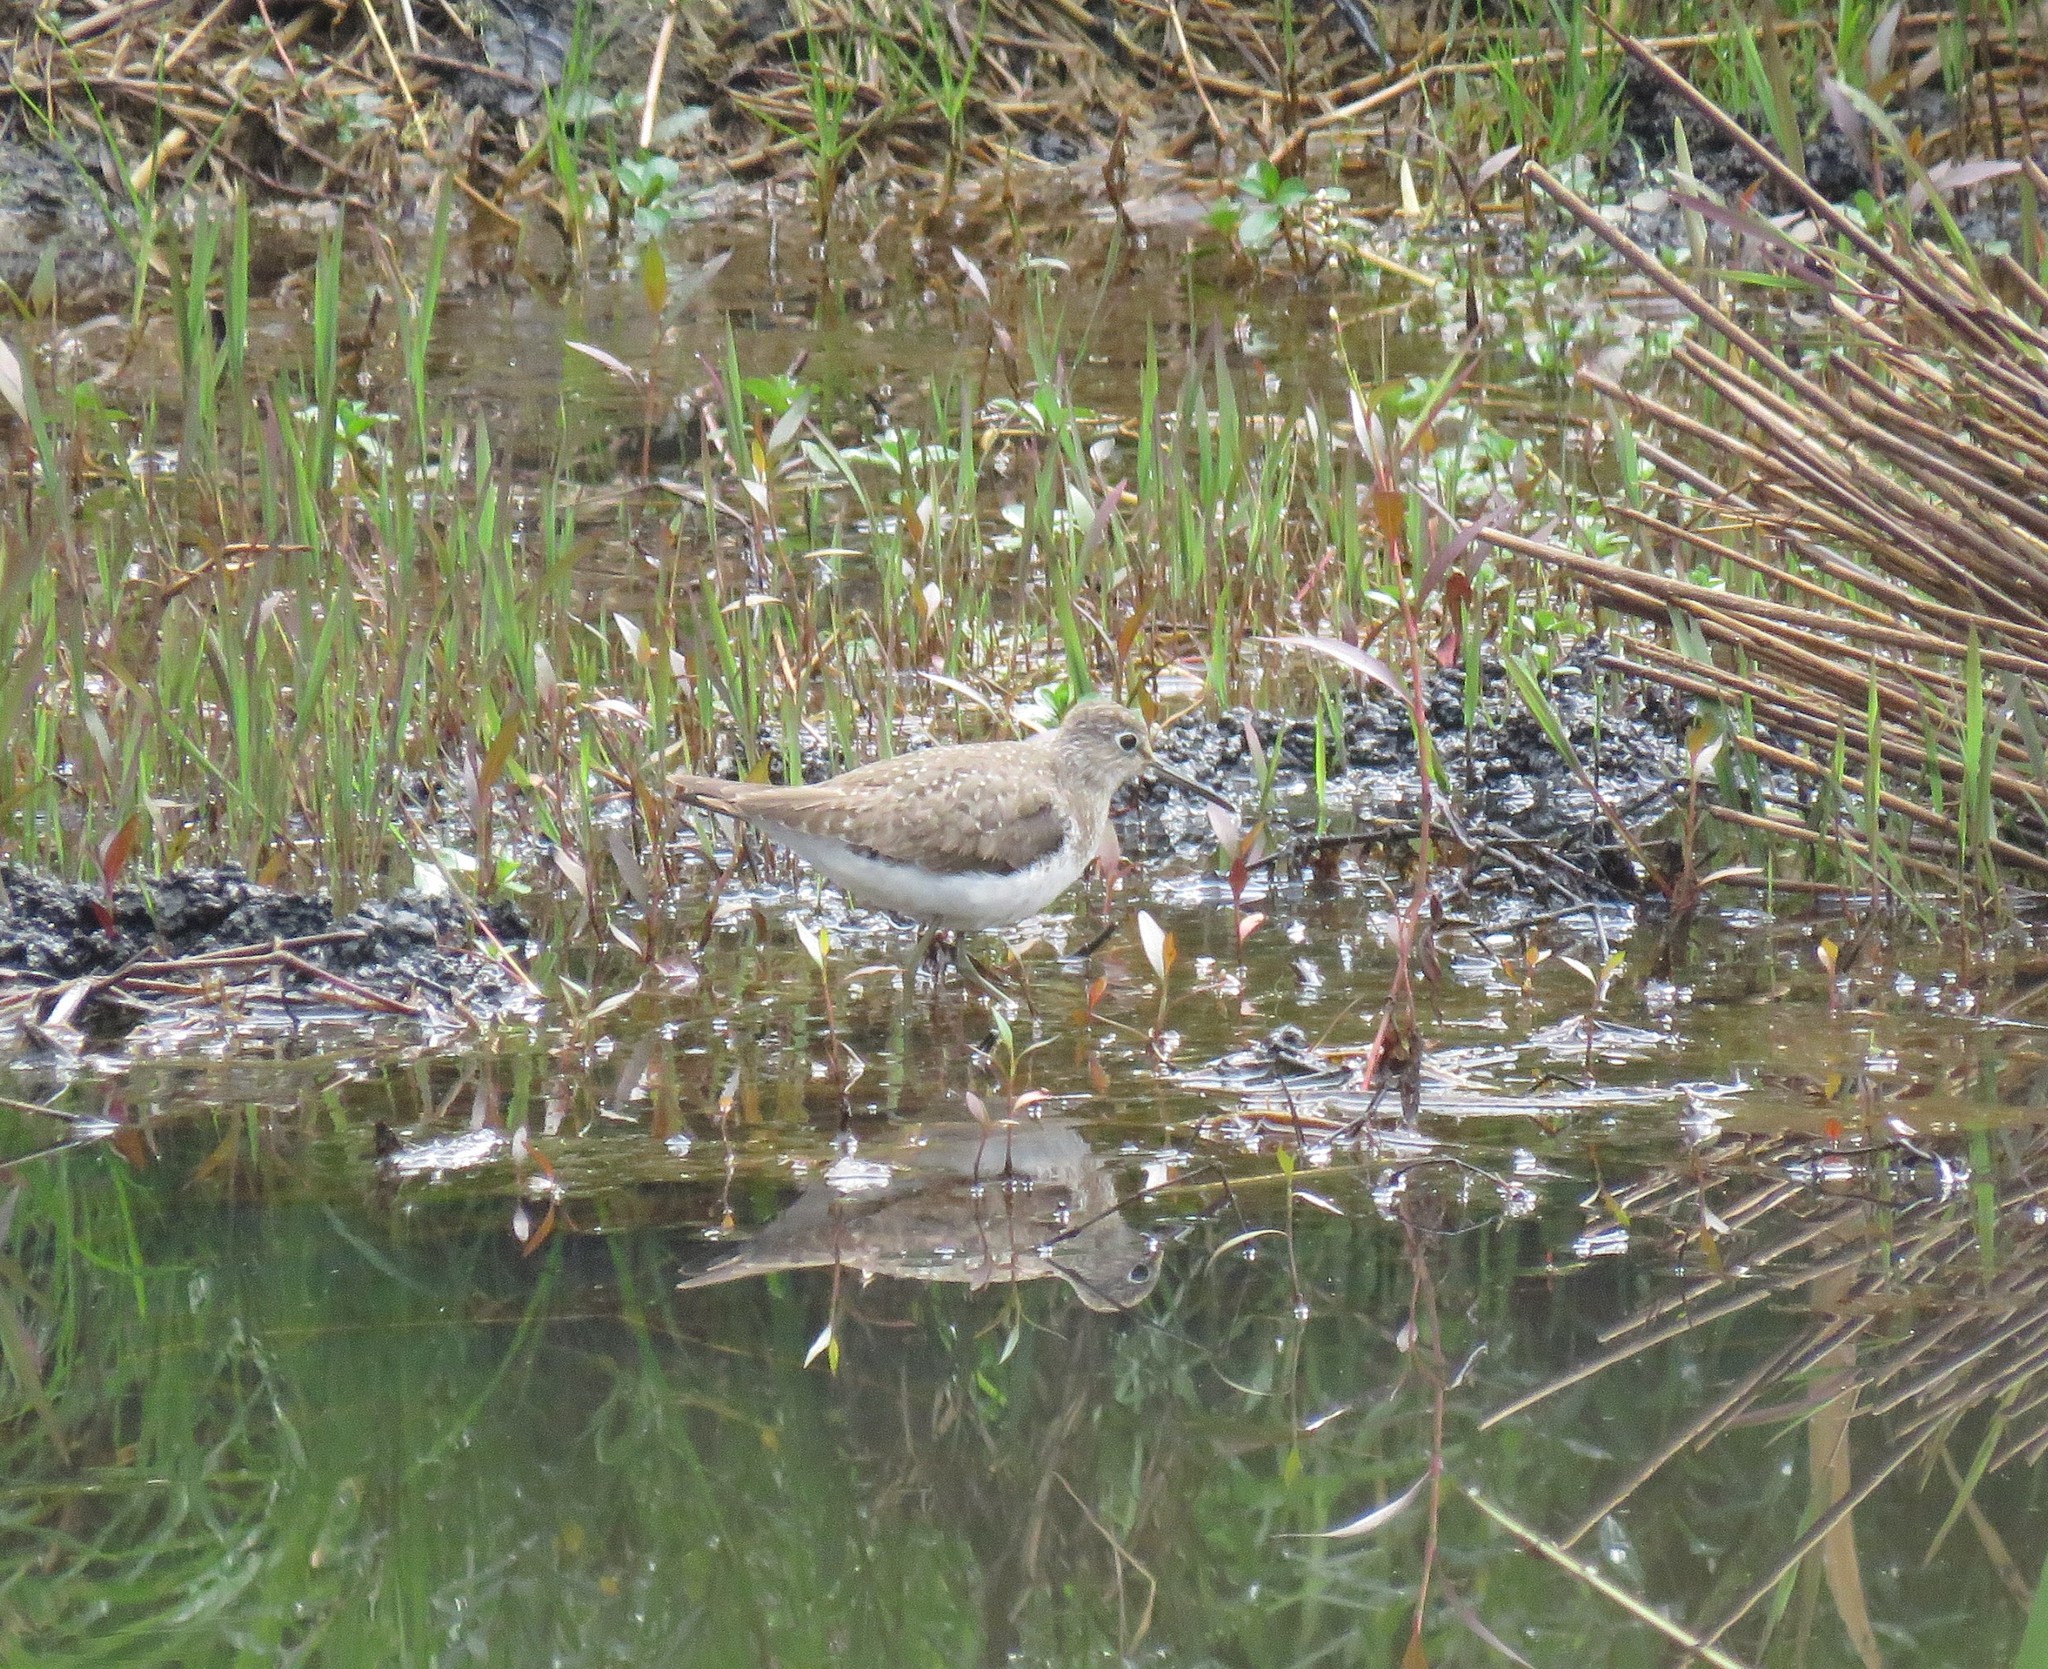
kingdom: Animalia
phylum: Chordata
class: Aves
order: Charadriiformes
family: Scolopacidae
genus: Tringa
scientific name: Tringa solitaria
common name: Solitary sandpiper
